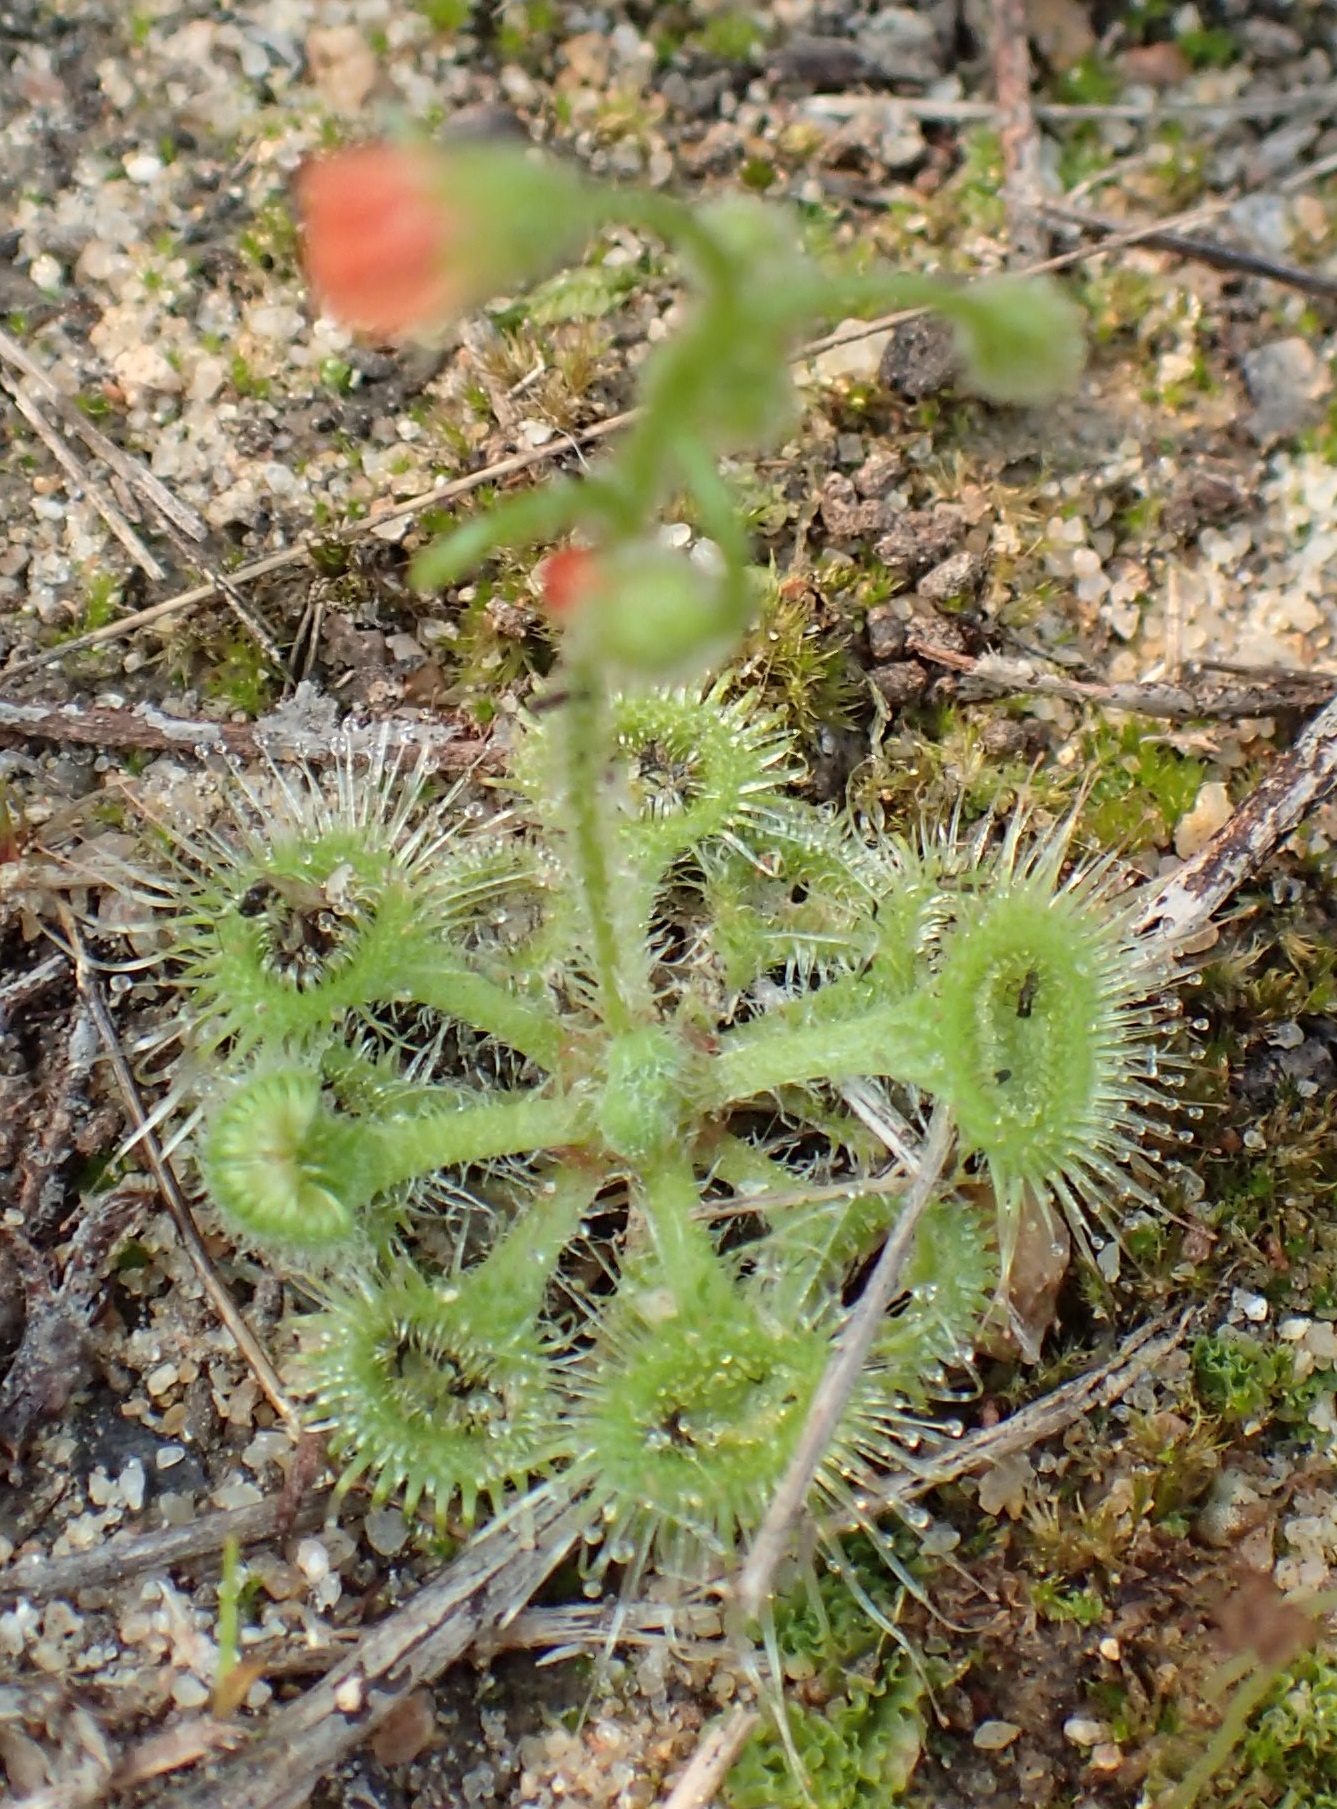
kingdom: Plantae
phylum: Tracheophyta
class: Magnoliopsida
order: Caryophyllales
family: Droseraceae
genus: Drosera
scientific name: Drosera glanduligera
